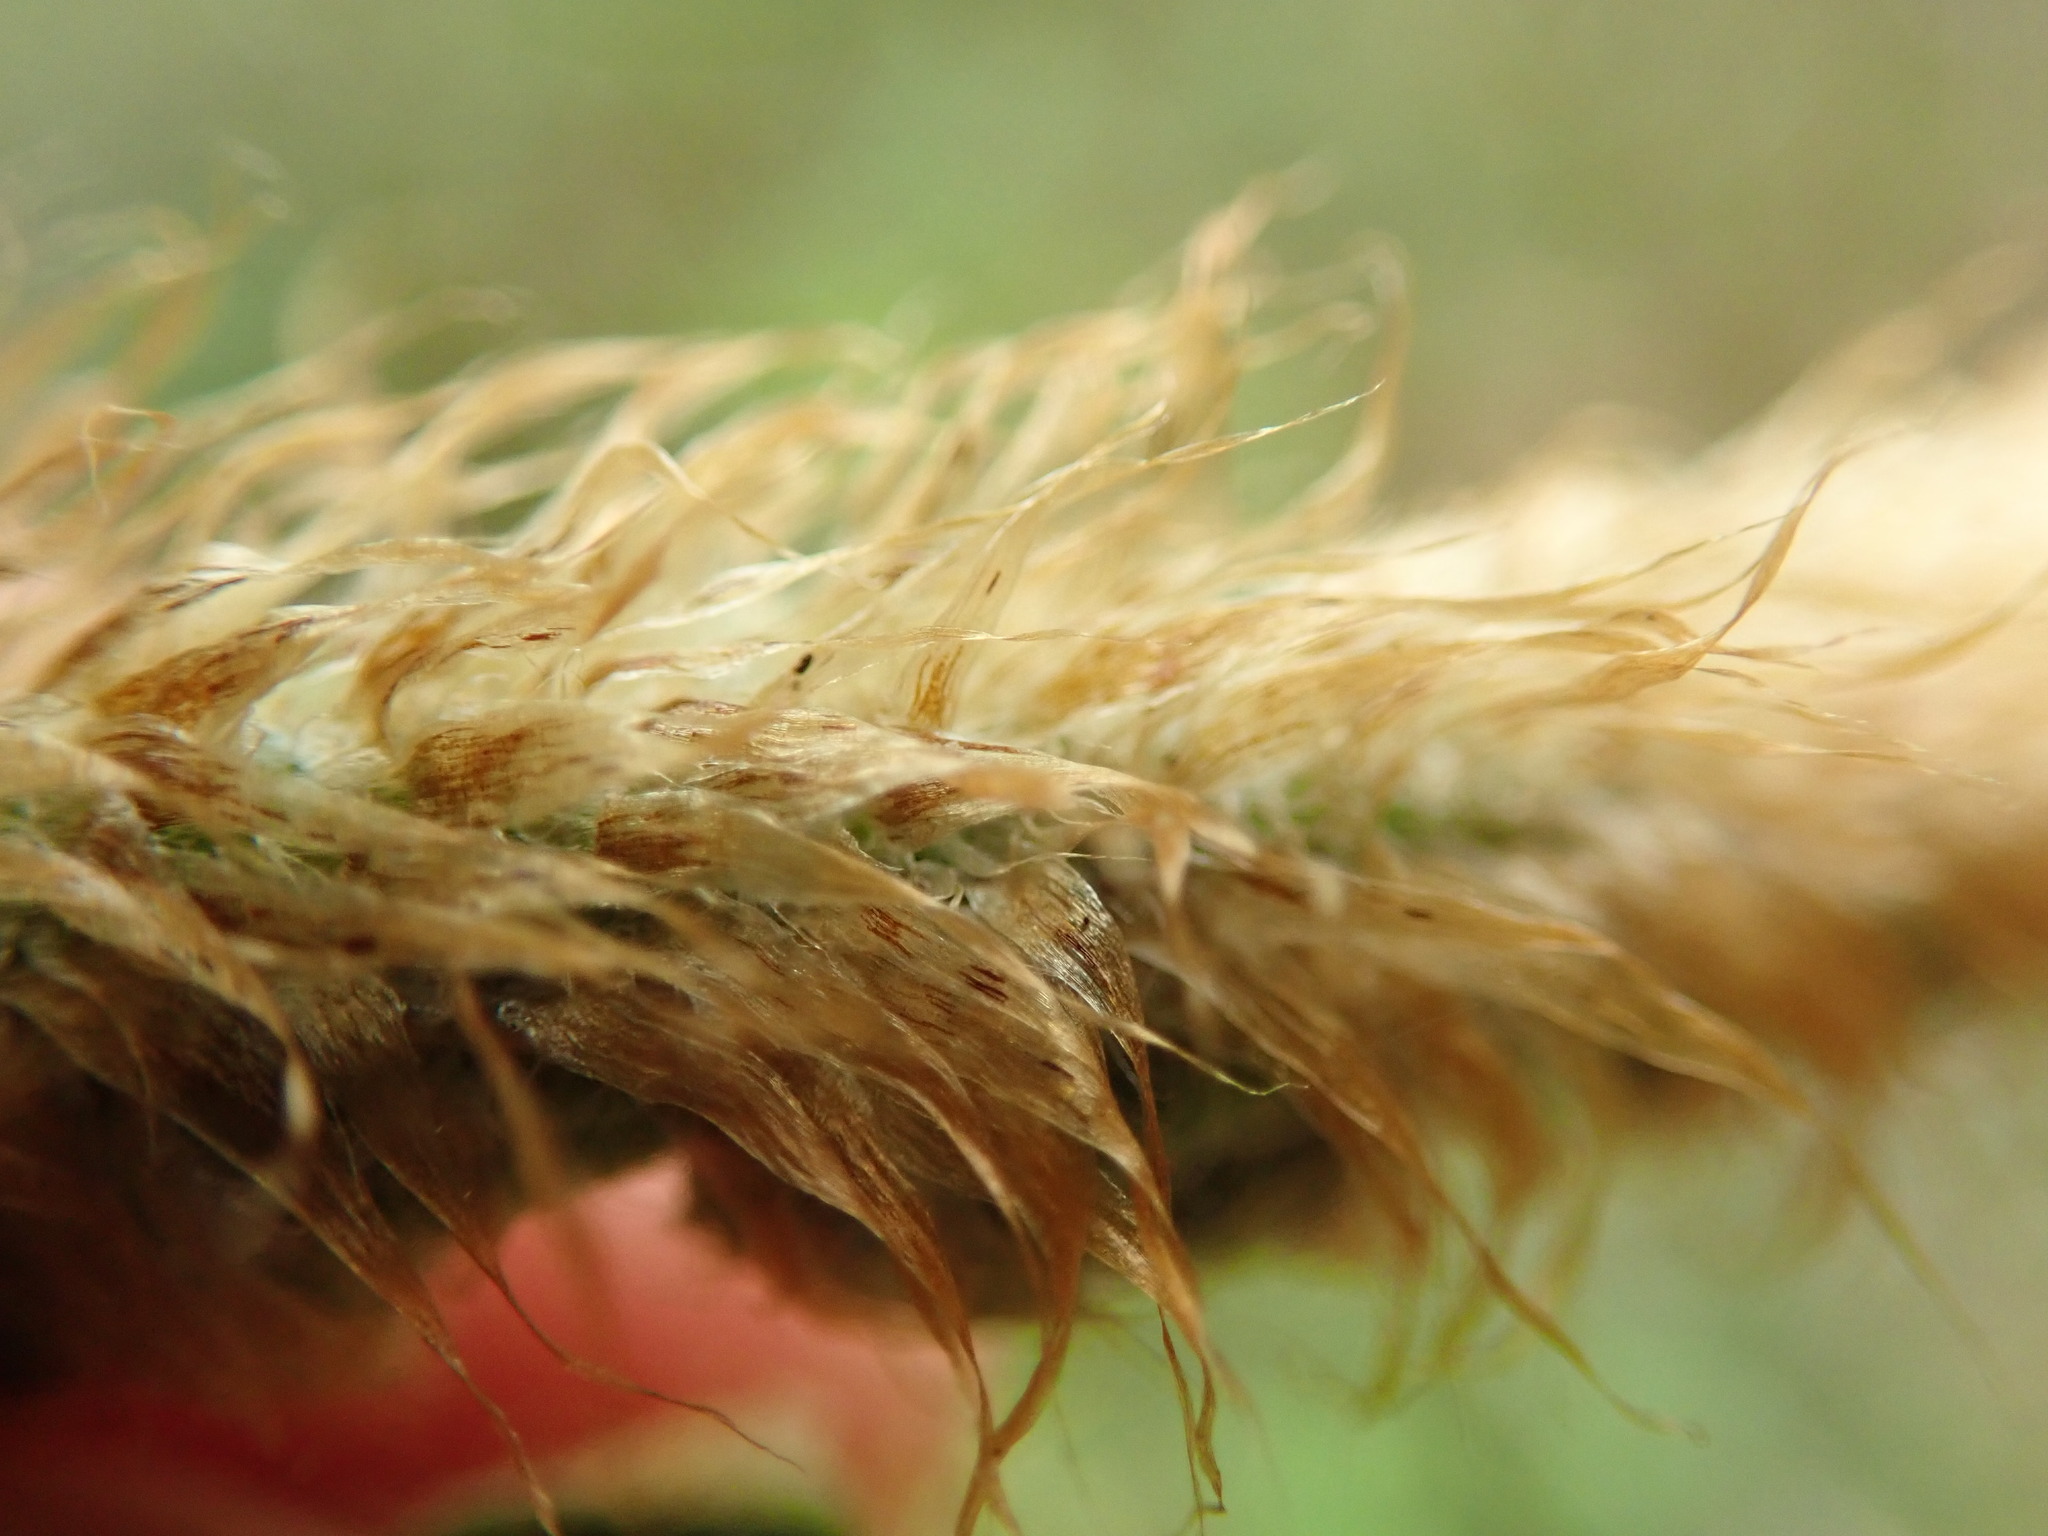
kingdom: Plantae
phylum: Tracheophyta
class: Polypodiopsida
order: Polypodiales
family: Dryopteridaceae
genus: Polystichum
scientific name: Polystichum munitum
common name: Western sword-fern
